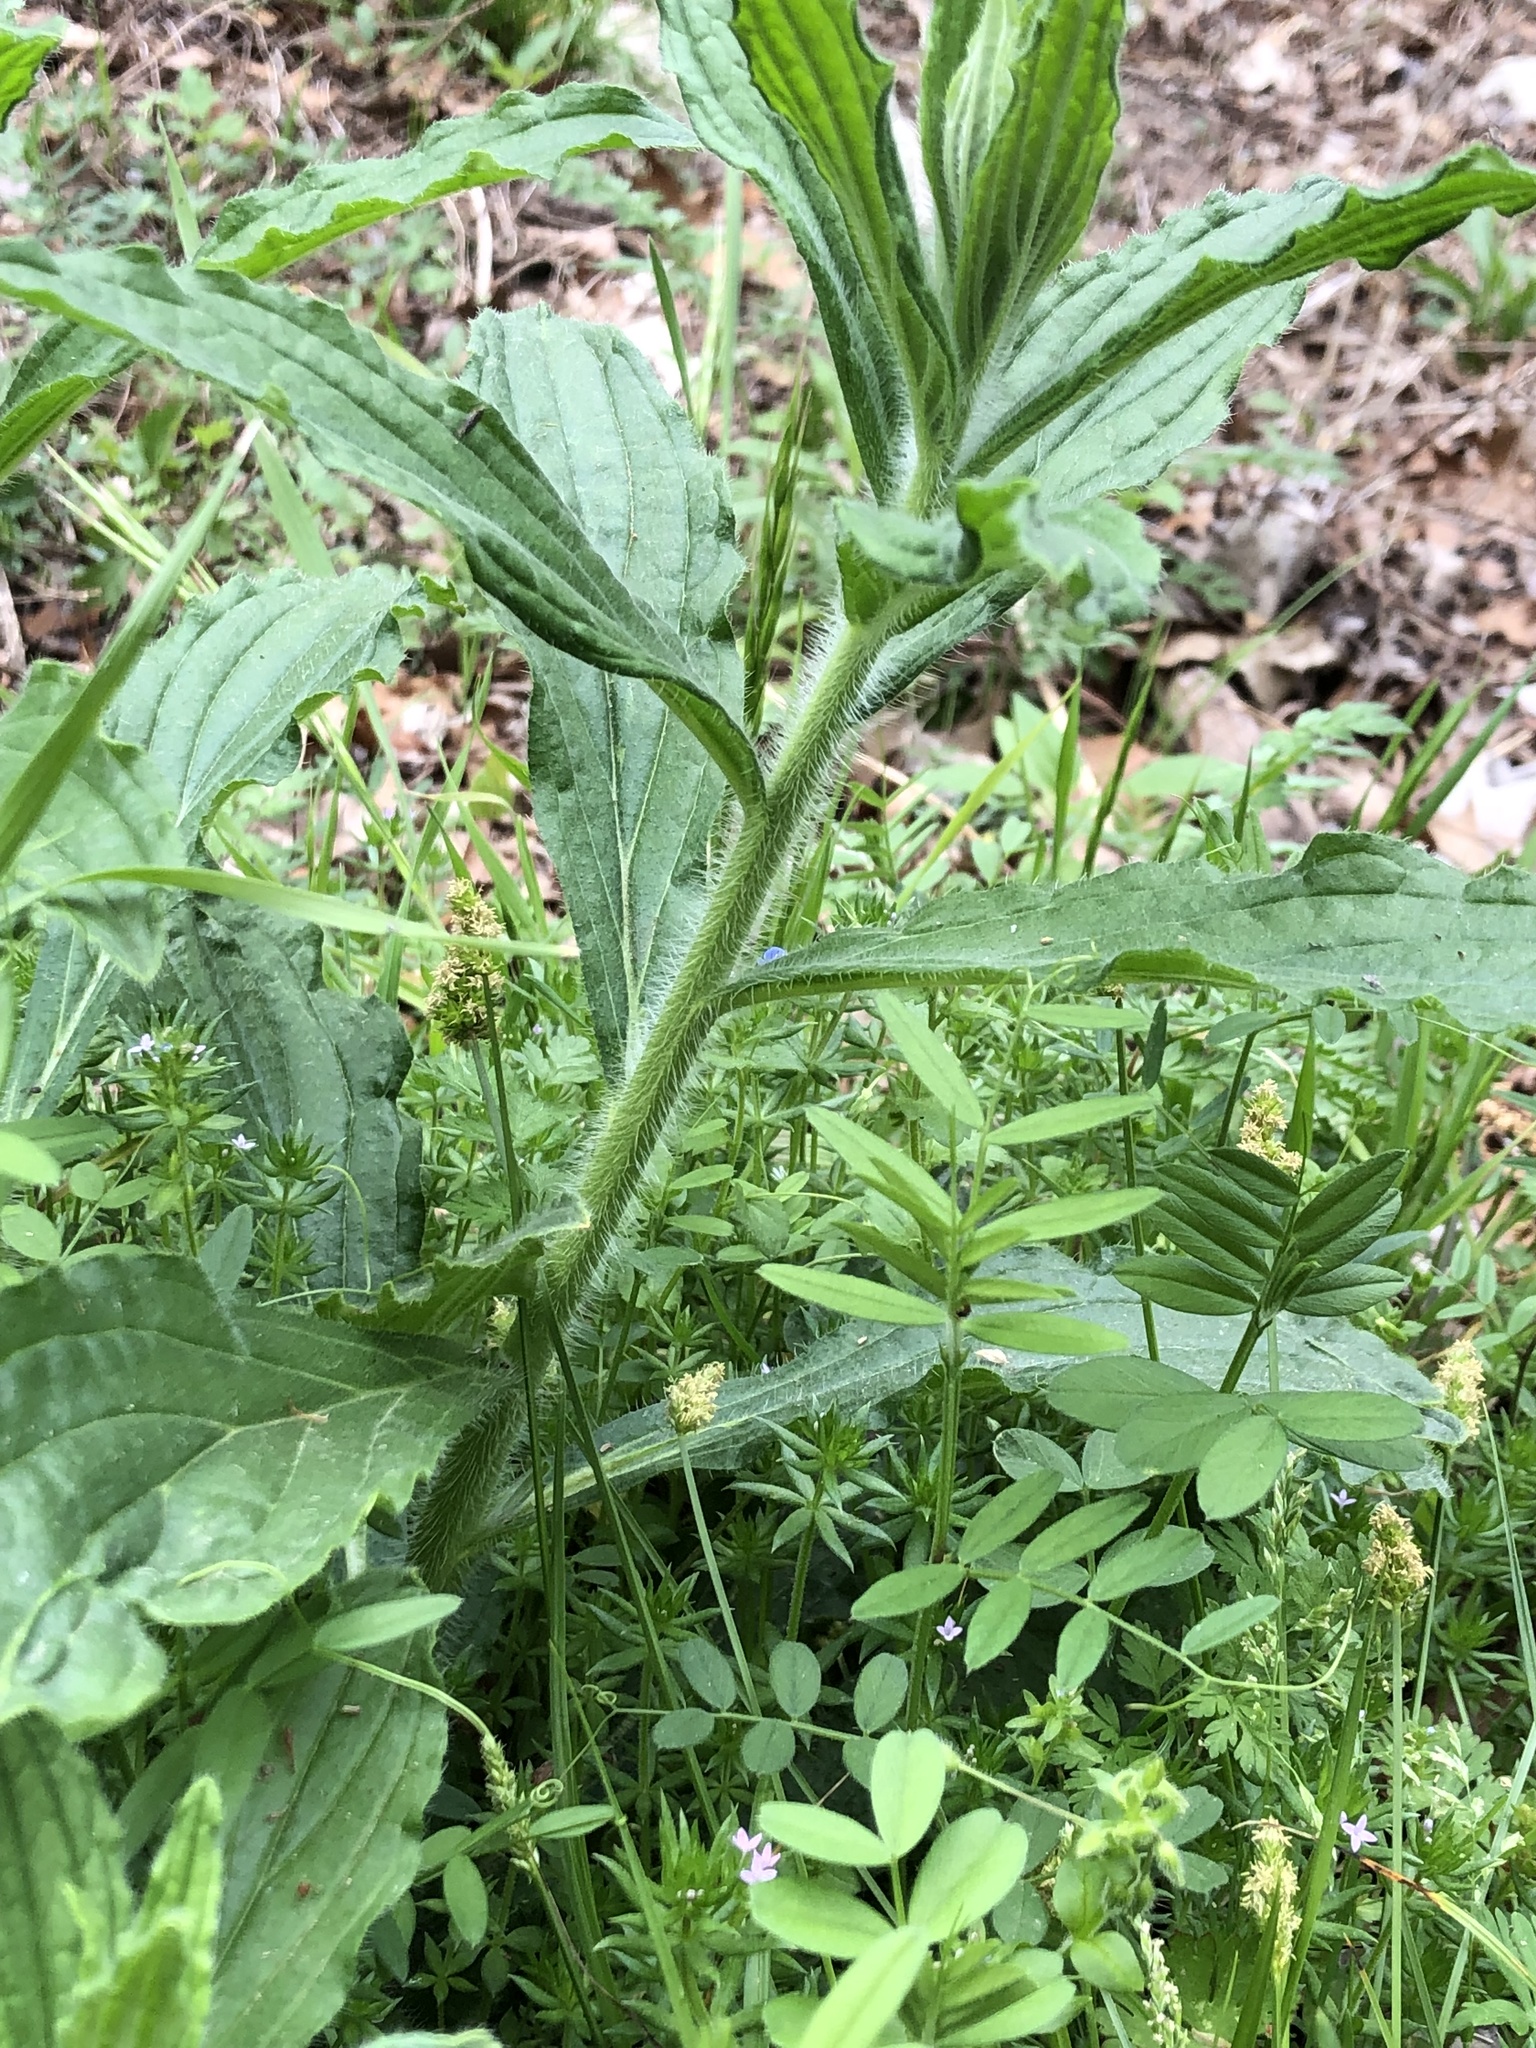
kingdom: Plantae
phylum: Tracheophyta
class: Magnoliopsida
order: Boraginales
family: Boraginaceae
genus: Lithospermum
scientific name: Lithospermum caroliniense
